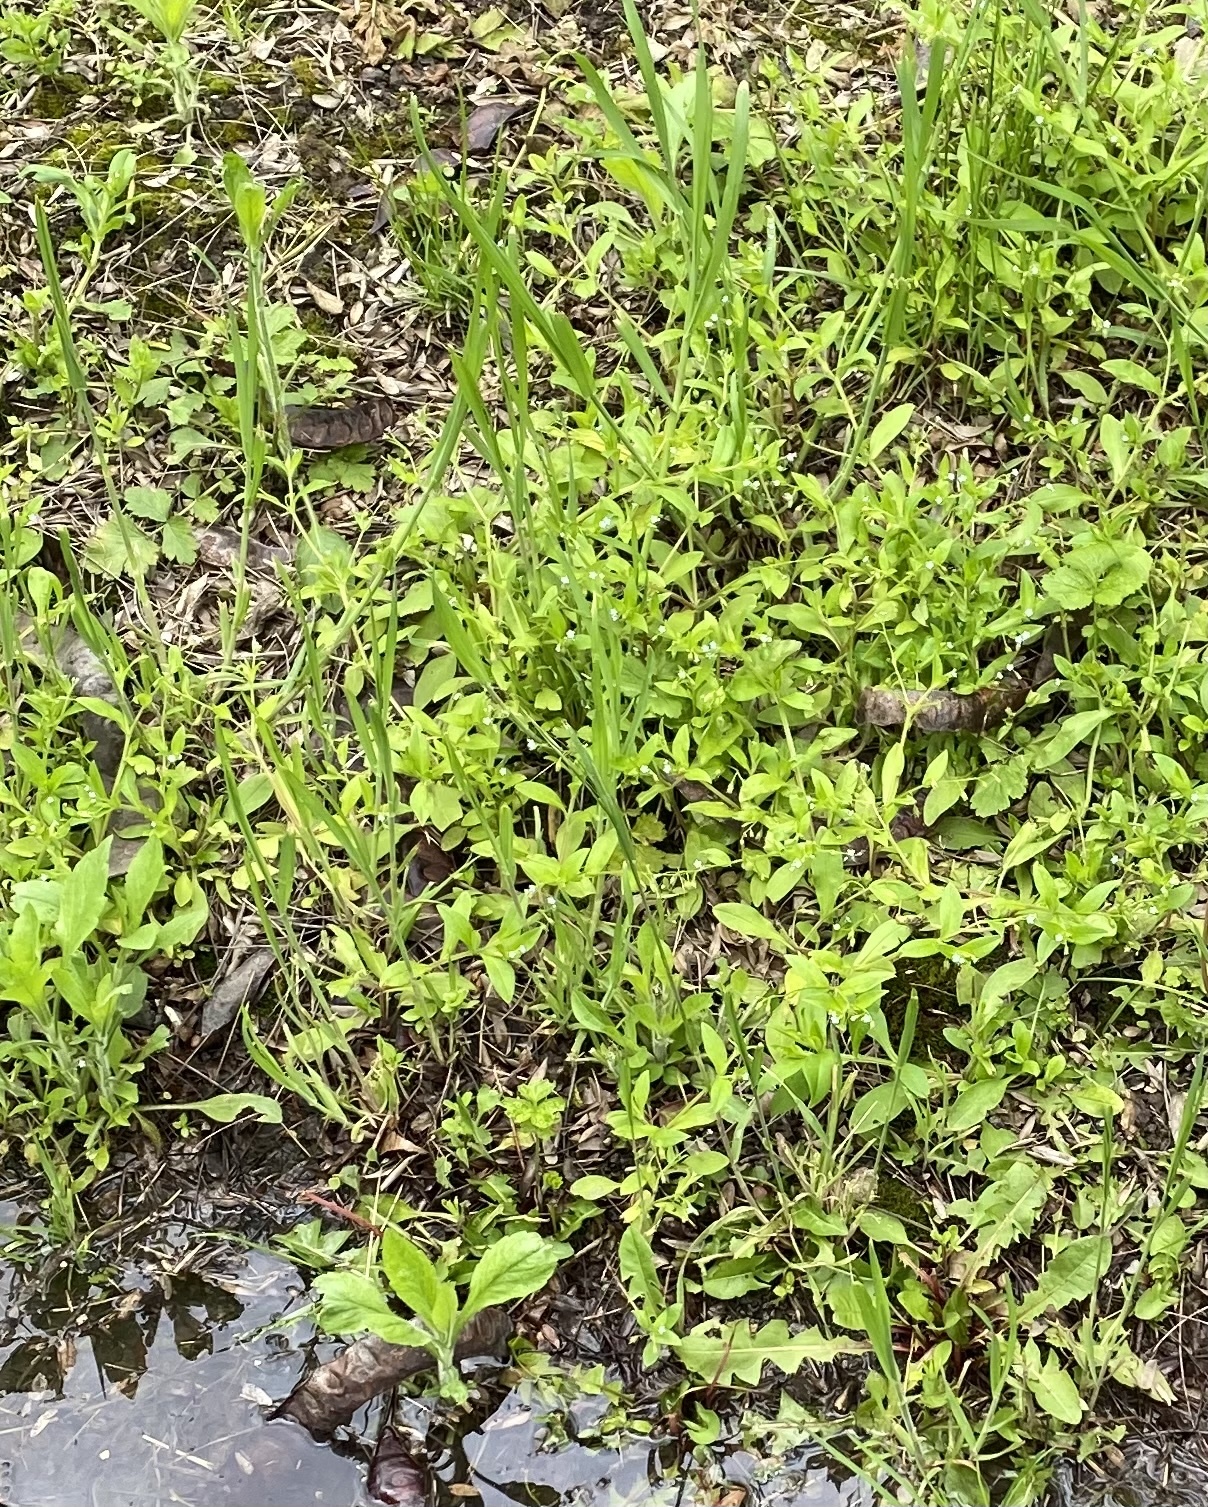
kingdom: Plantae
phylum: Tracheophyta
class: Magnoliopsida
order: Boraginales
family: Boraginaceae
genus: Myosotis
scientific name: Myosotis sparsiflora
